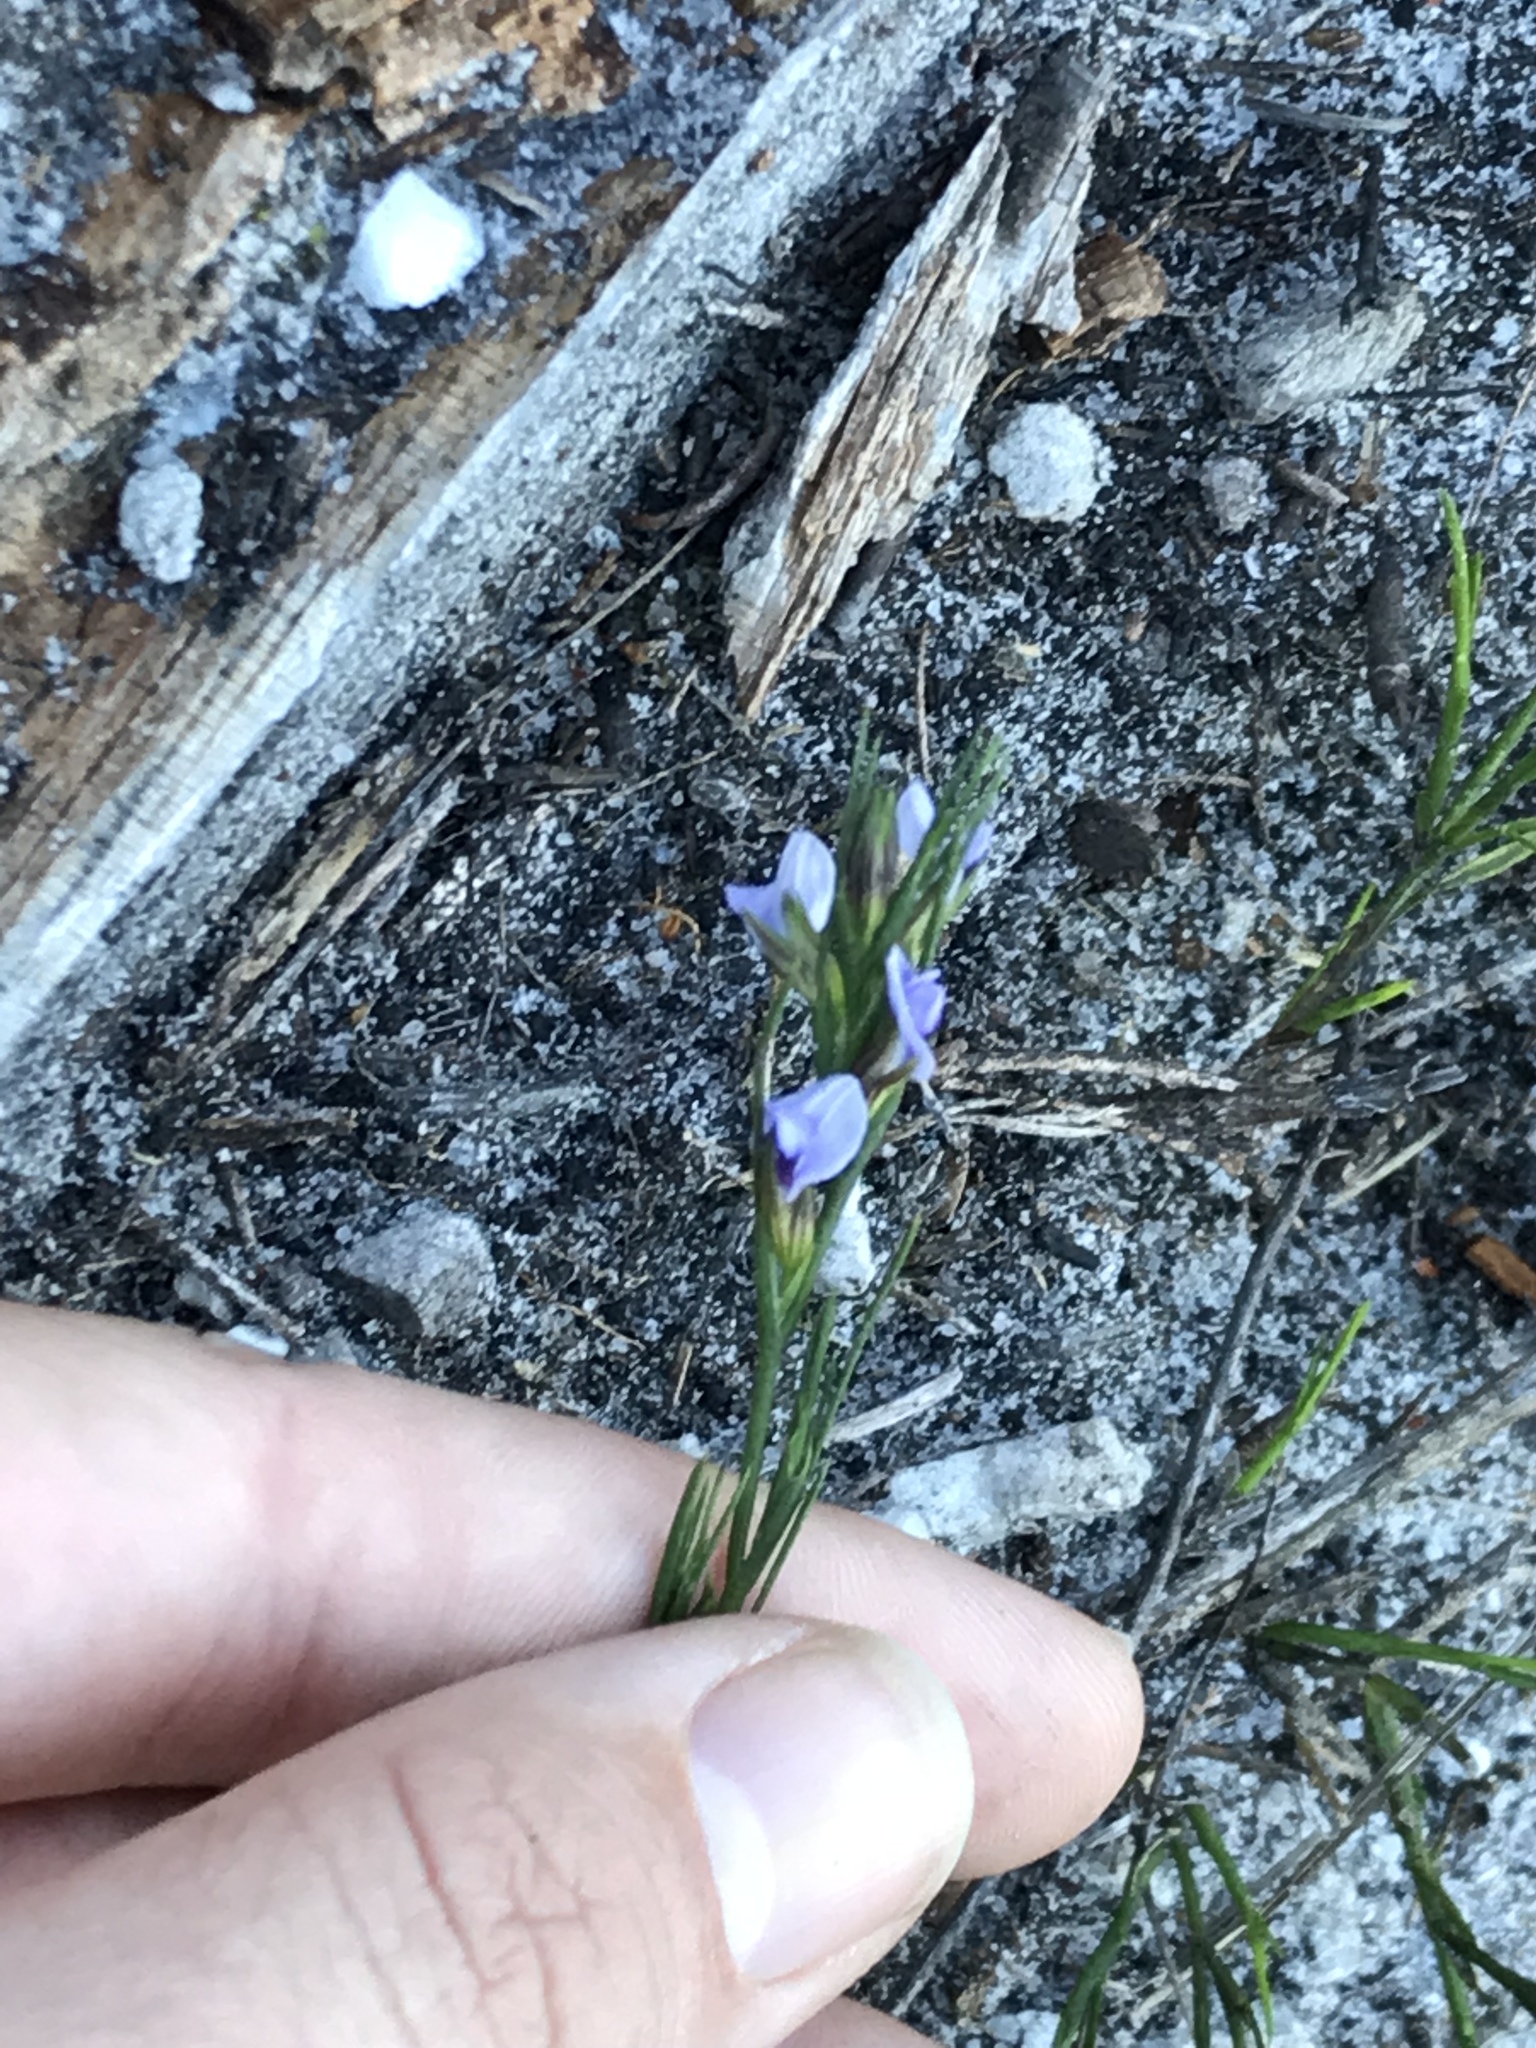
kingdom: Plantae
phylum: Tracheophyta
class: Magnoliopsida
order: Fabales
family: Fabaceae
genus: Psoralea
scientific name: Psoralea restioides
